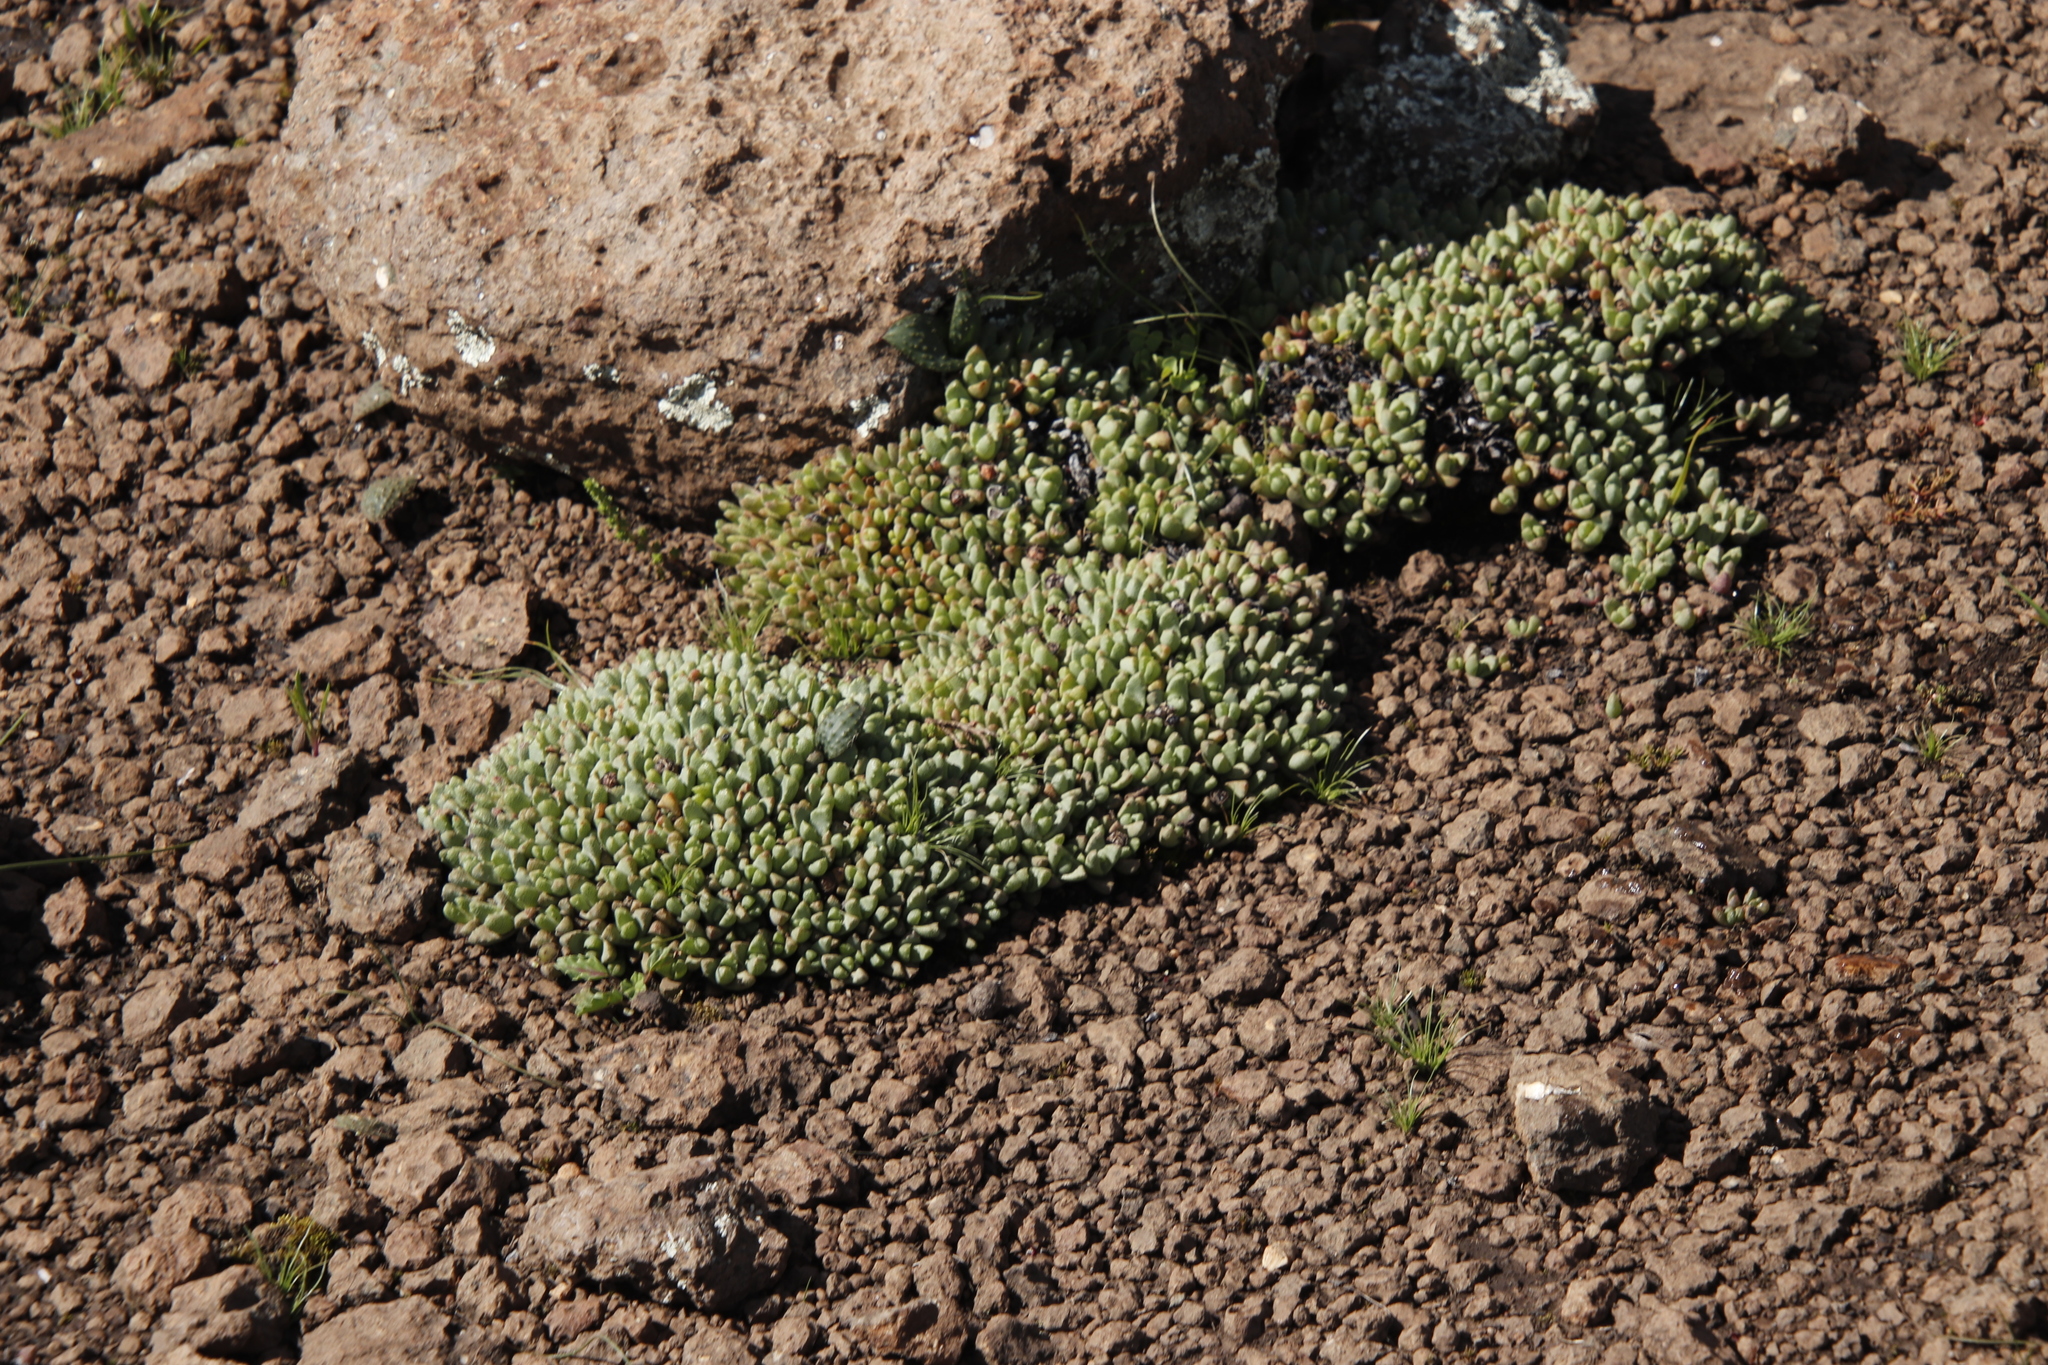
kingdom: Plantae
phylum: Tracheophyta
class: Magnoliopsida
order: Caryophyllales
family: Aizoaceae
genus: Stomatium
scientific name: Stomatium gerstneri
